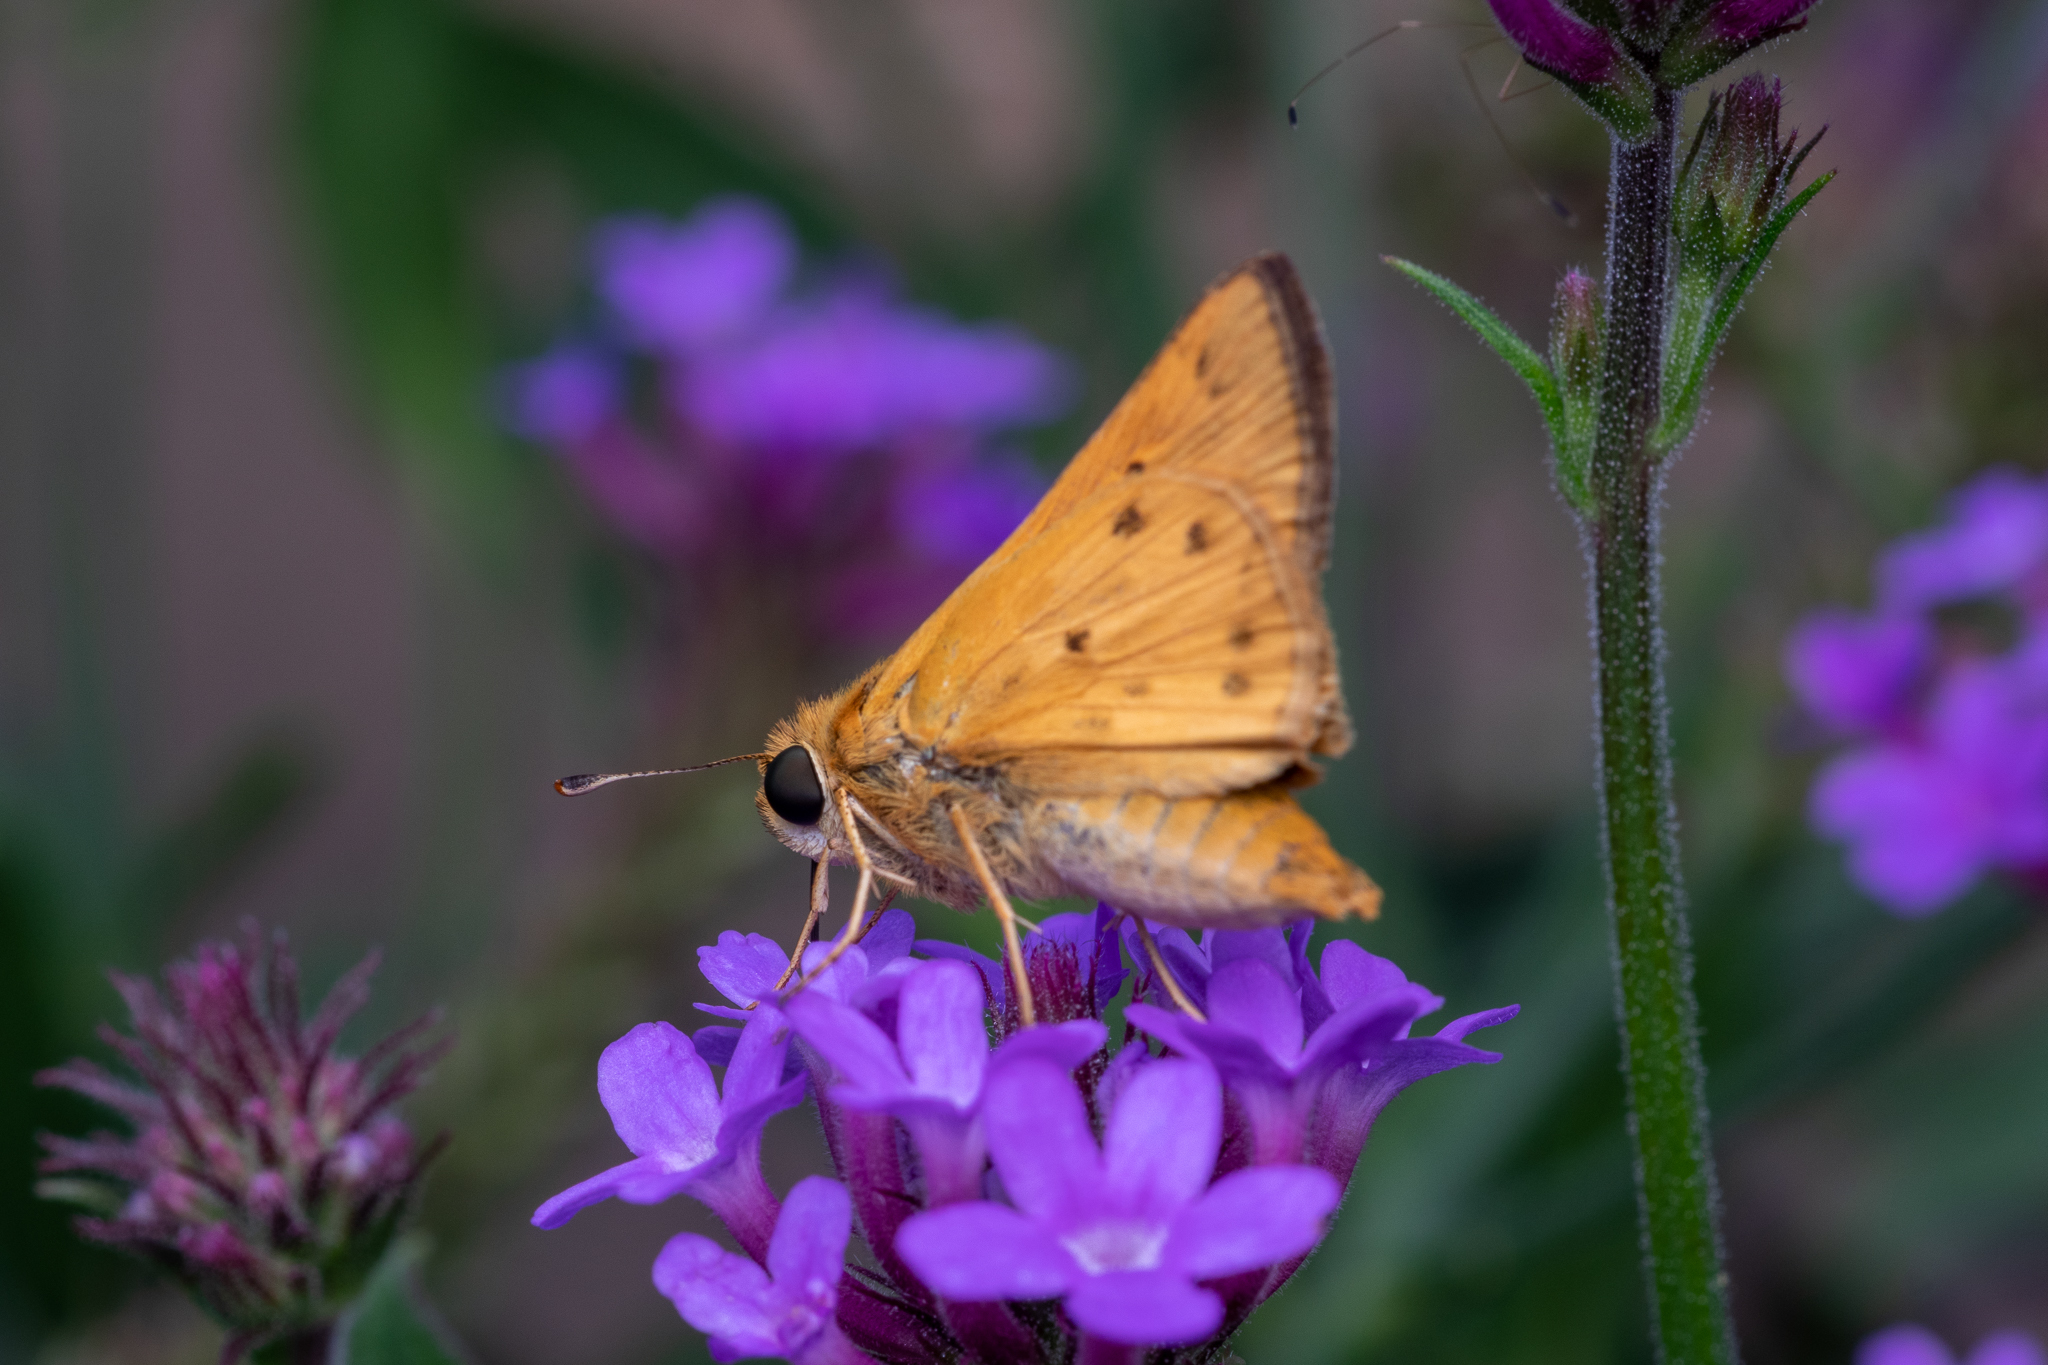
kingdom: Animalia
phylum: Arthropoda
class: Insecta
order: Lepidoptera
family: Hesperiidae
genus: Hylephila
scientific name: Hylephila phyleus
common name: Fiery skipper
